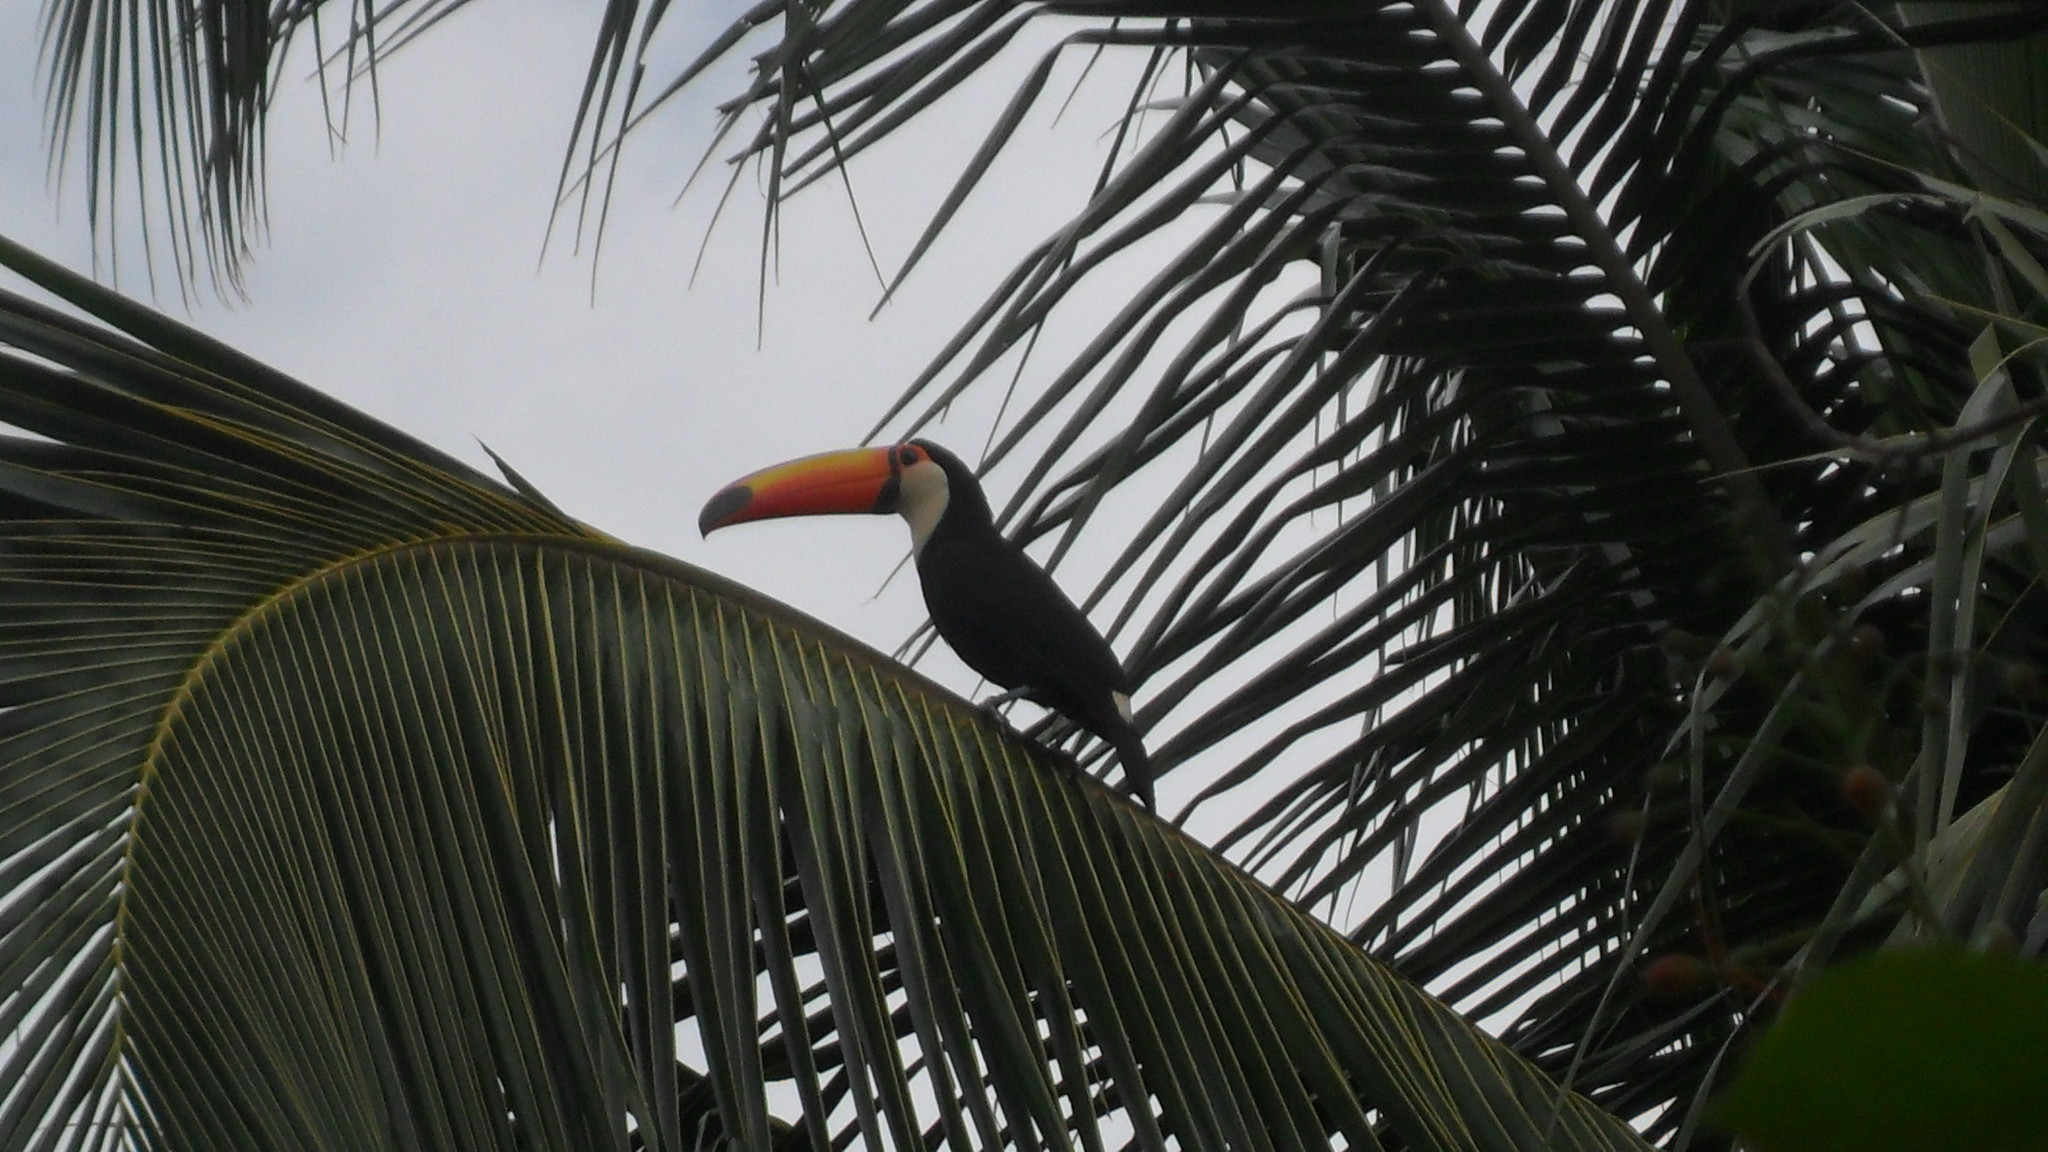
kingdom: Animalia
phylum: Chordata
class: Aves
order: Piciformes
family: Ramphastidae
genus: Ramphastos
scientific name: Ramphastos toco
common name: Toco toucan
